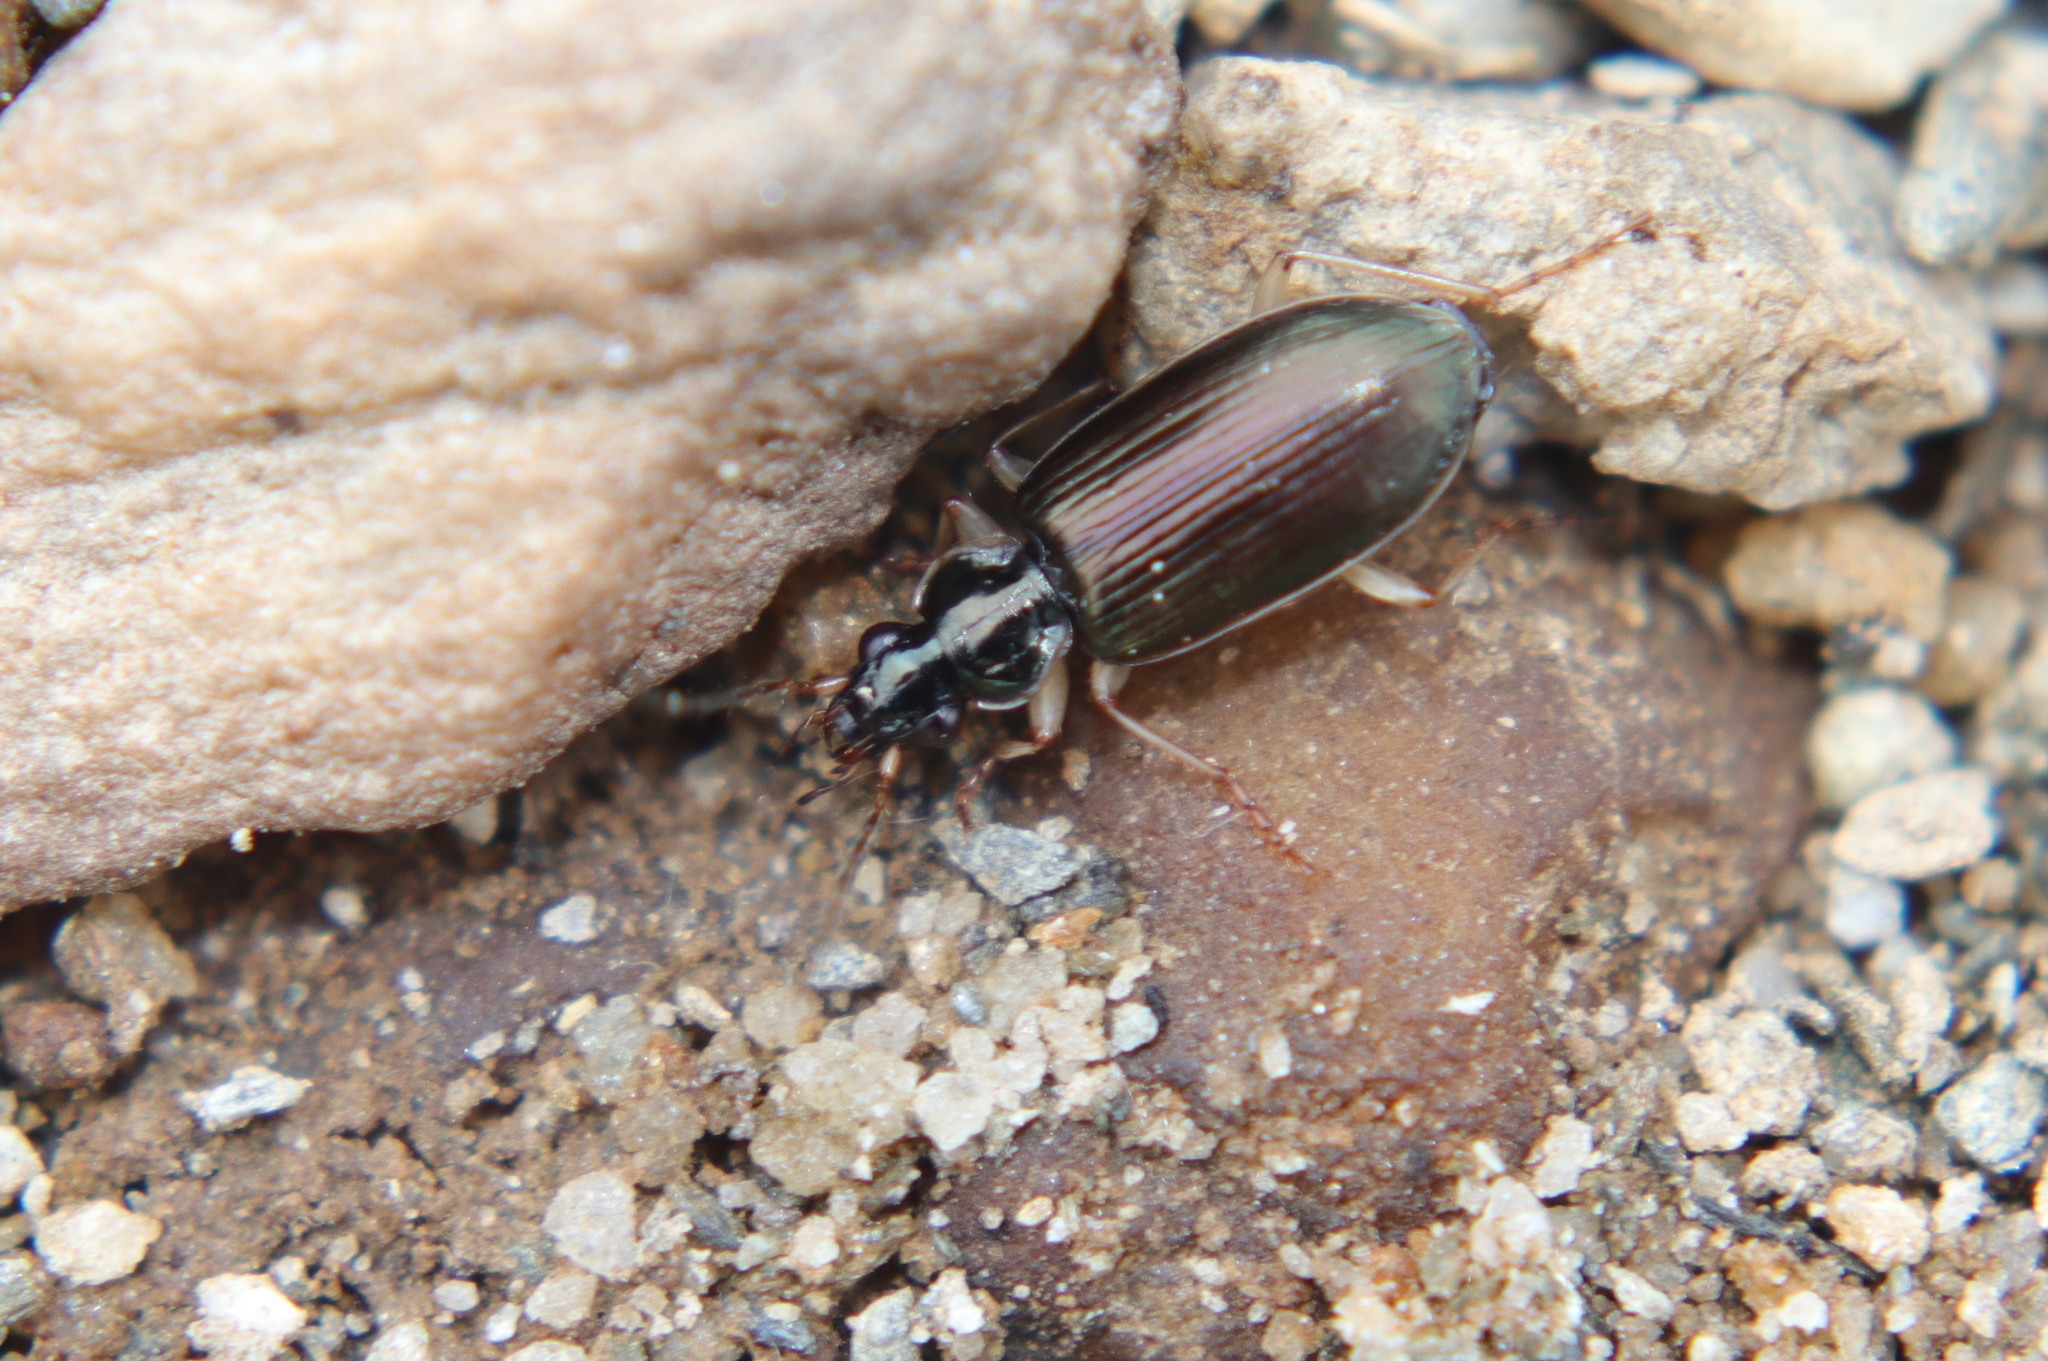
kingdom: Animalia
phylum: Arthropoda
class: Insecta
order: Coleoptera
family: Carabidae
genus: Notagonum
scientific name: Notagonum submetallicum
